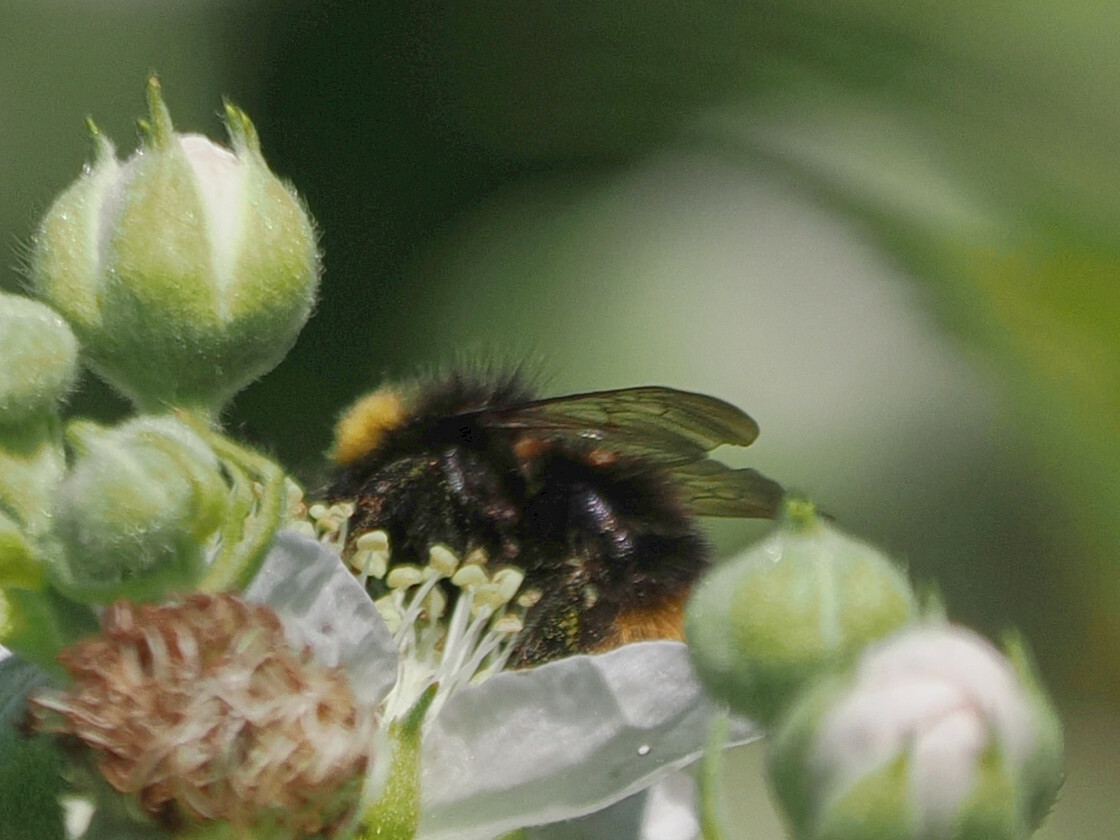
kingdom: Animalia
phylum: Arthropoda
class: Insecta
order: Hymenoptera
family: Apidae
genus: Bombus
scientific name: Bombus pratorum
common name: Early humble-bee
